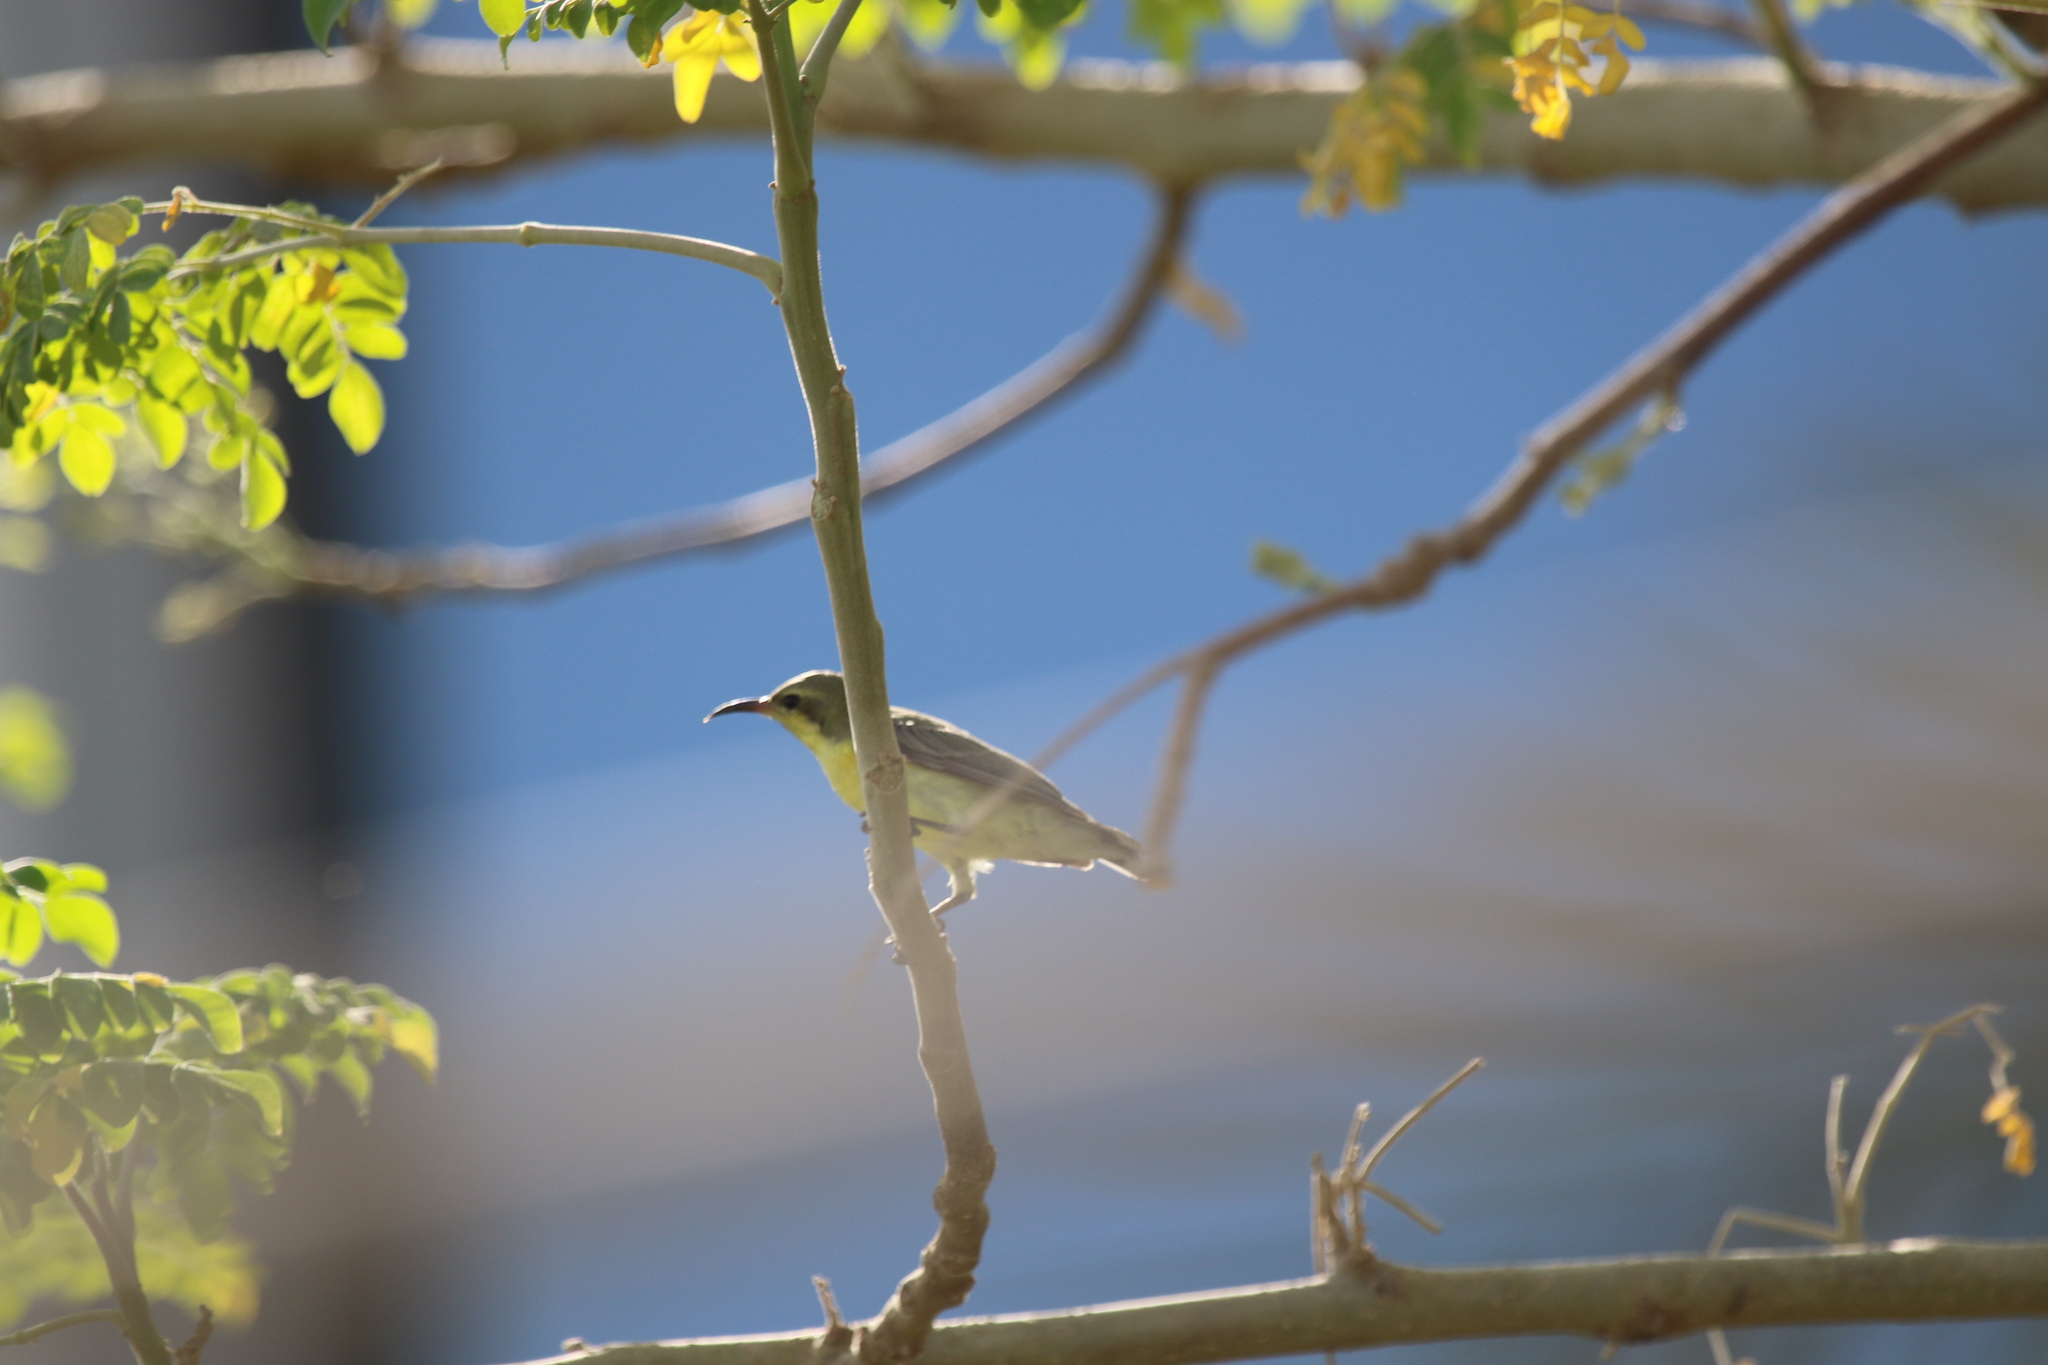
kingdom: Animalia
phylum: Chordata
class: Aves
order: Passeriformes
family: Nectariniidae
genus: Cinnyris
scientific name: Cinnyris asiaticus
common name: Purple sunbird
